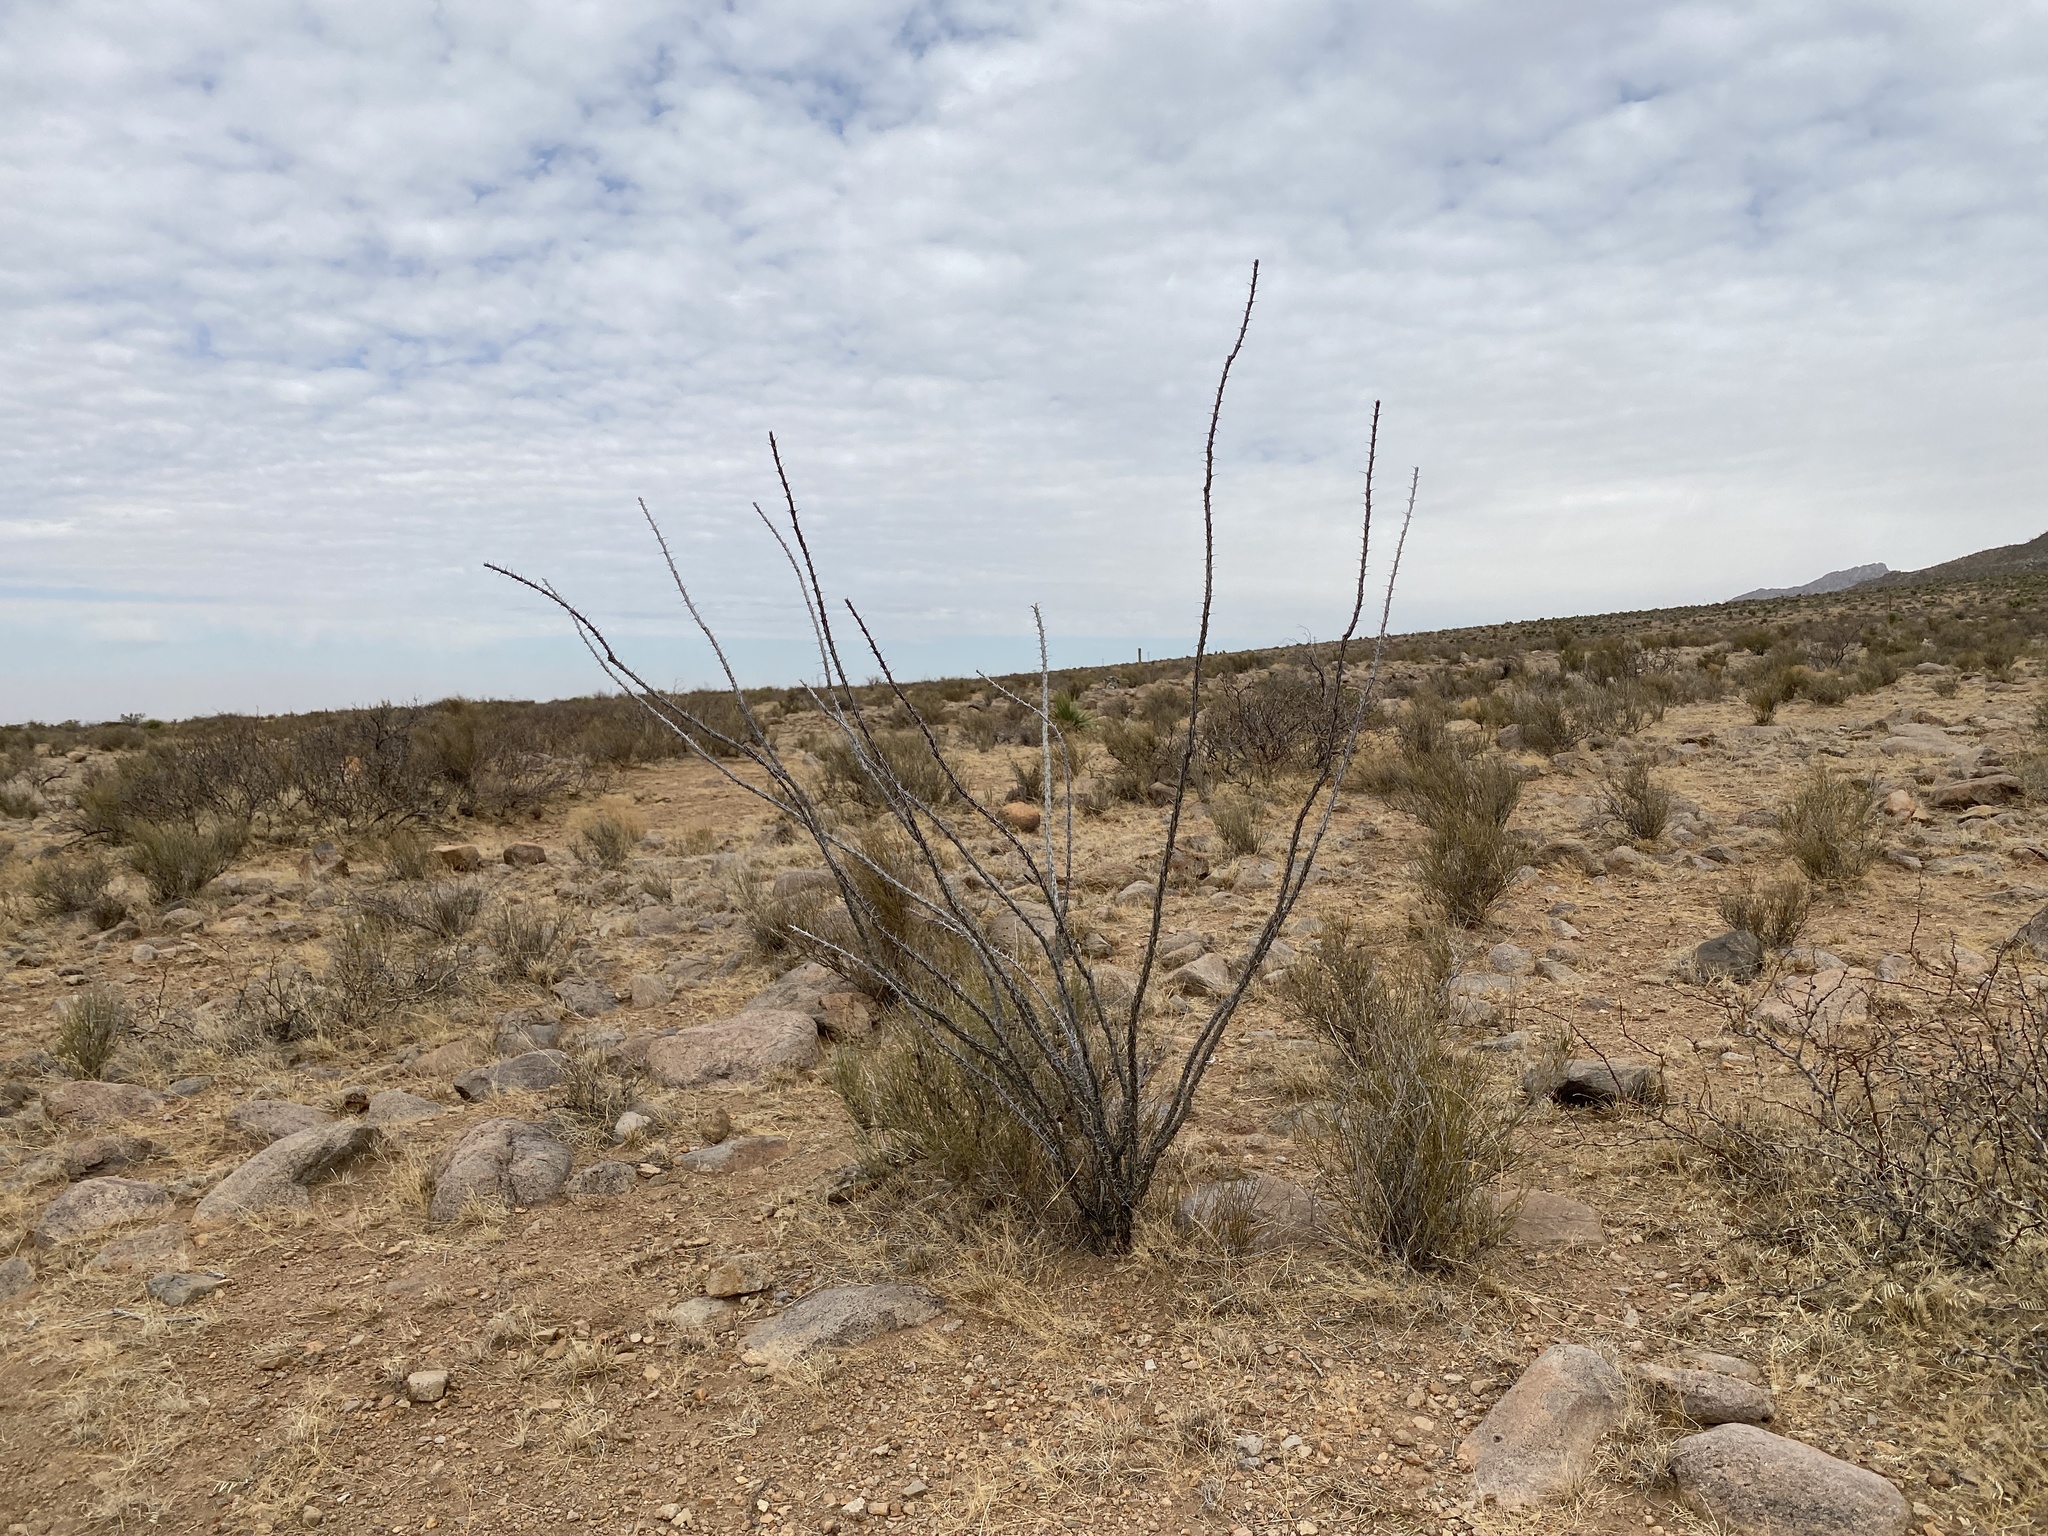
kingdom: Plantae
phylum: Tracheophyta
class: Magnoliopsida
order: Ericales
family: Fouquieriaceae
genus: Fouquieria
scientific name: Fouquieria splendens
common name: Vine-cactus
